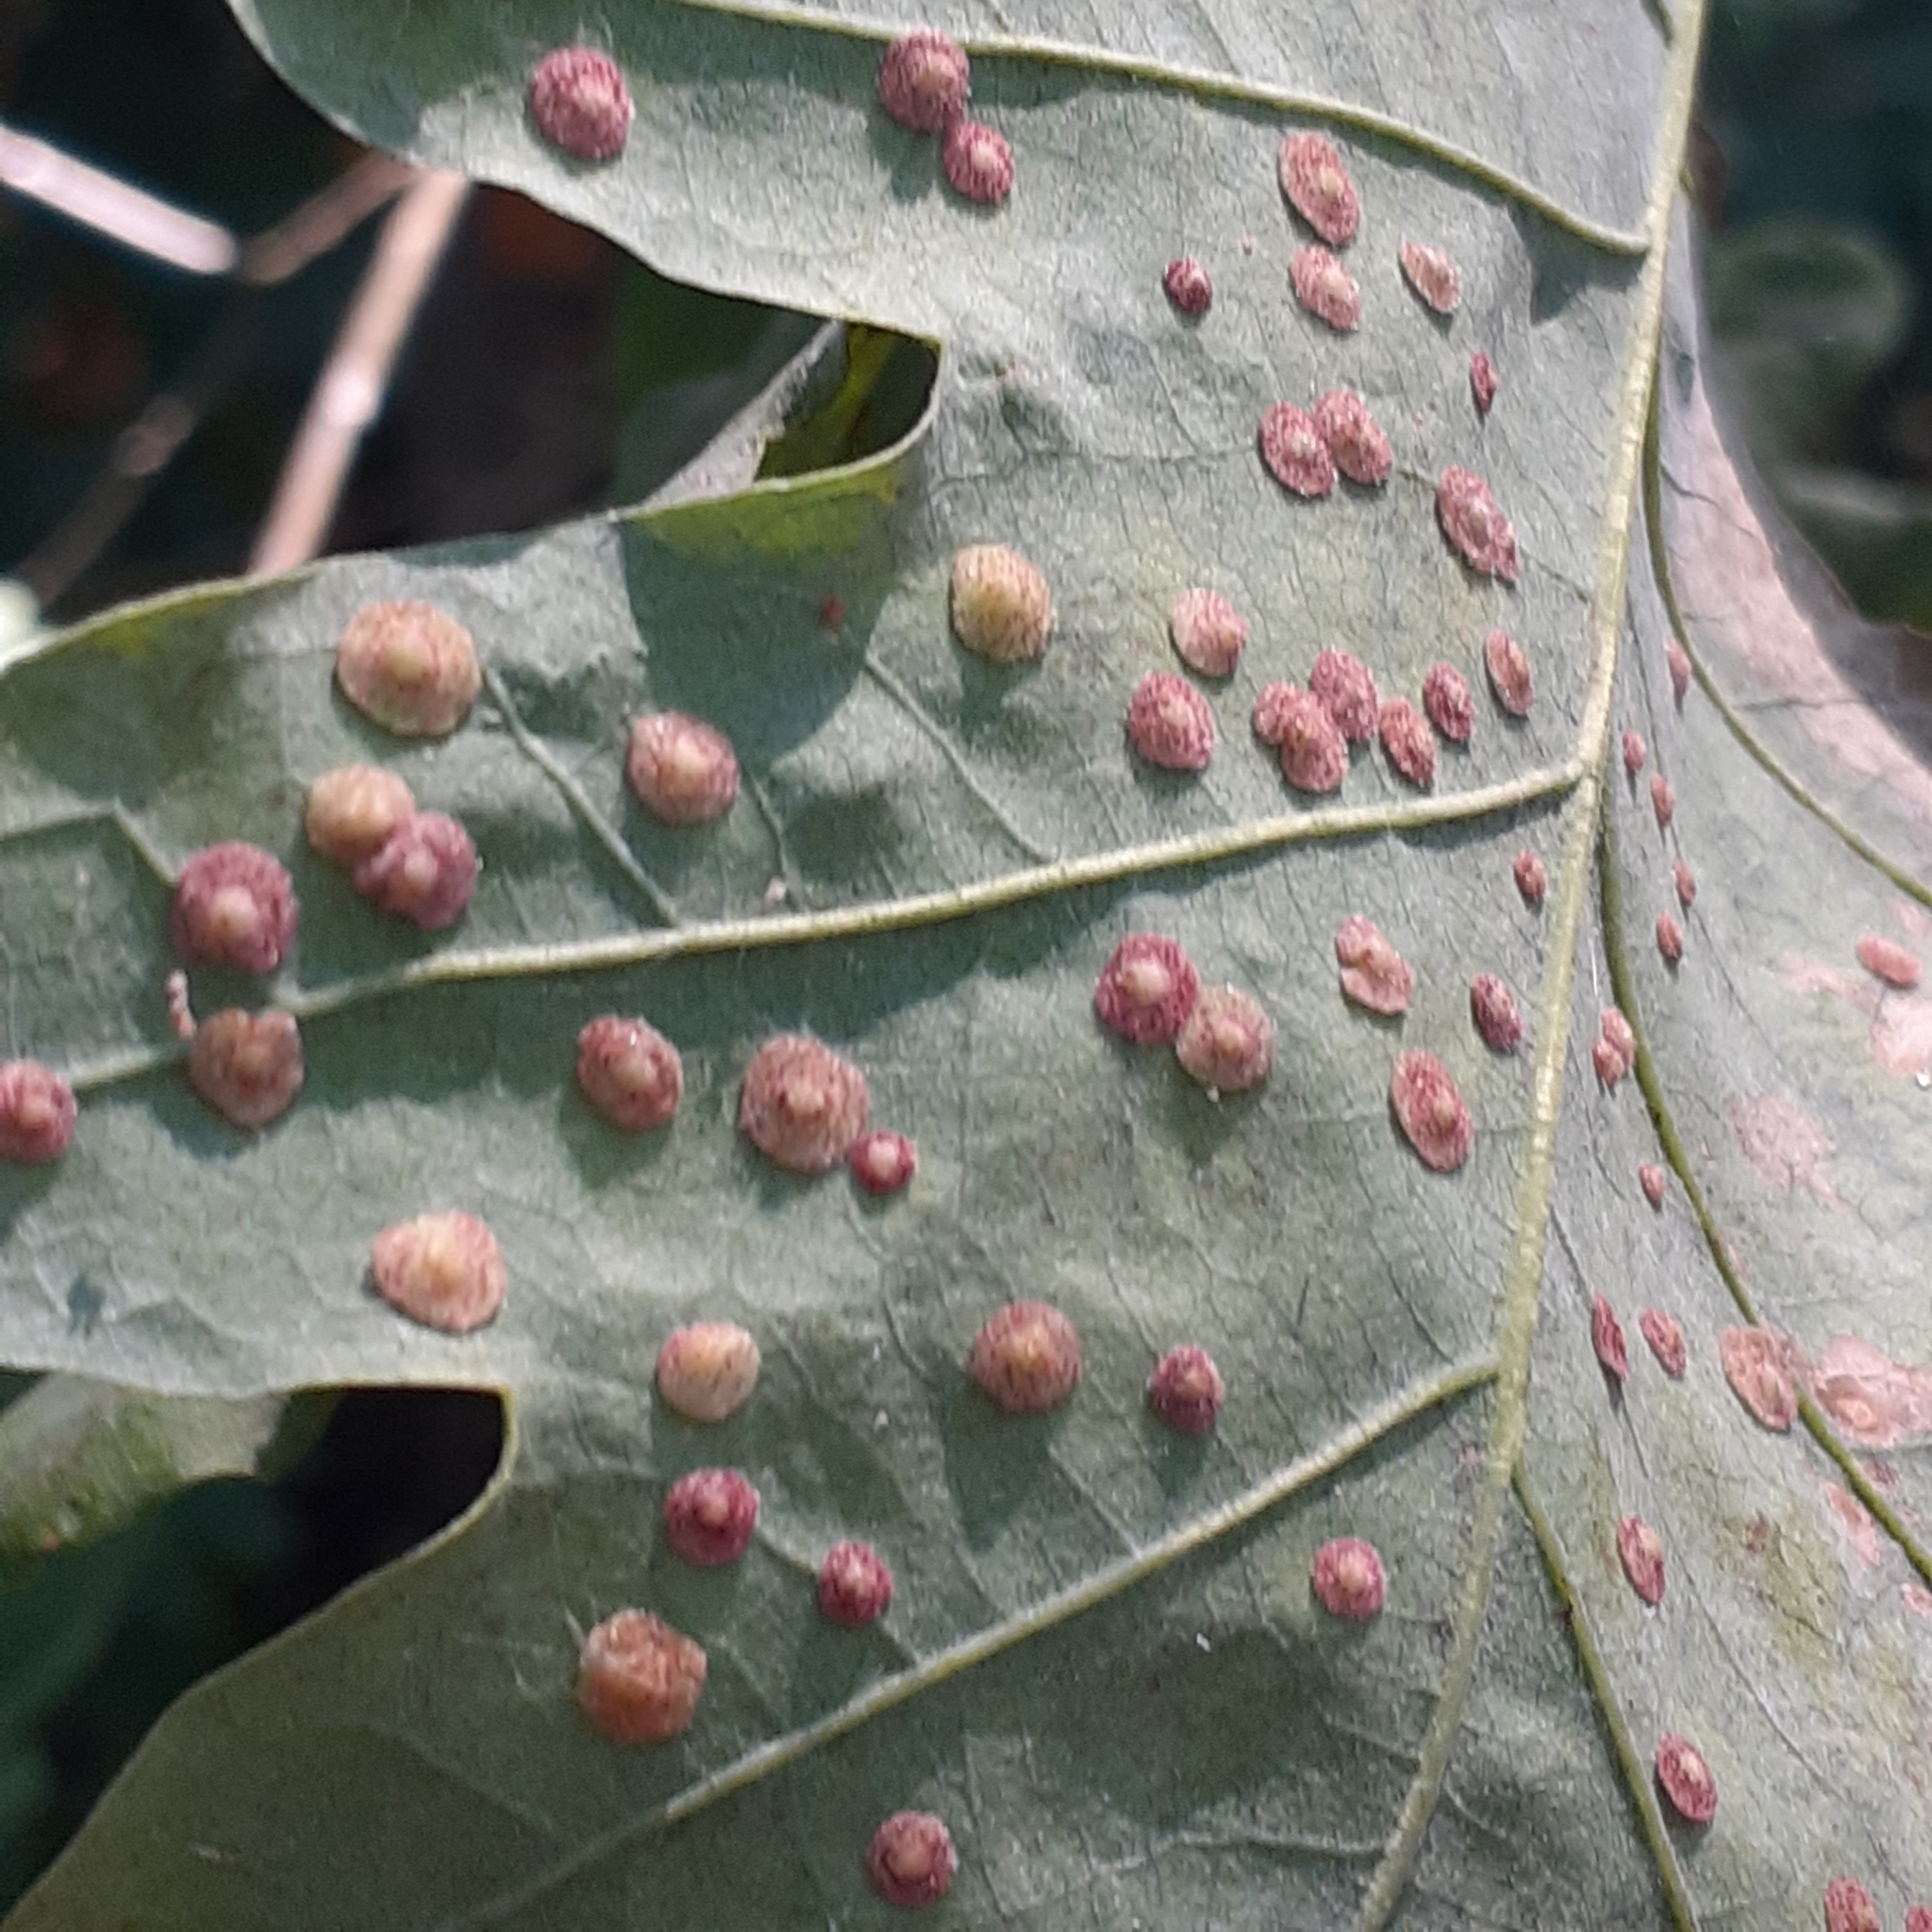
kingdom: Animalia
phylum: Arthropoda
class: Insecta
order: Hymenoptera
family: Cynipidae
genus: Neuroterus
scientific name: Neuroterus quercusbaccarum
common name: Common spangle gall
